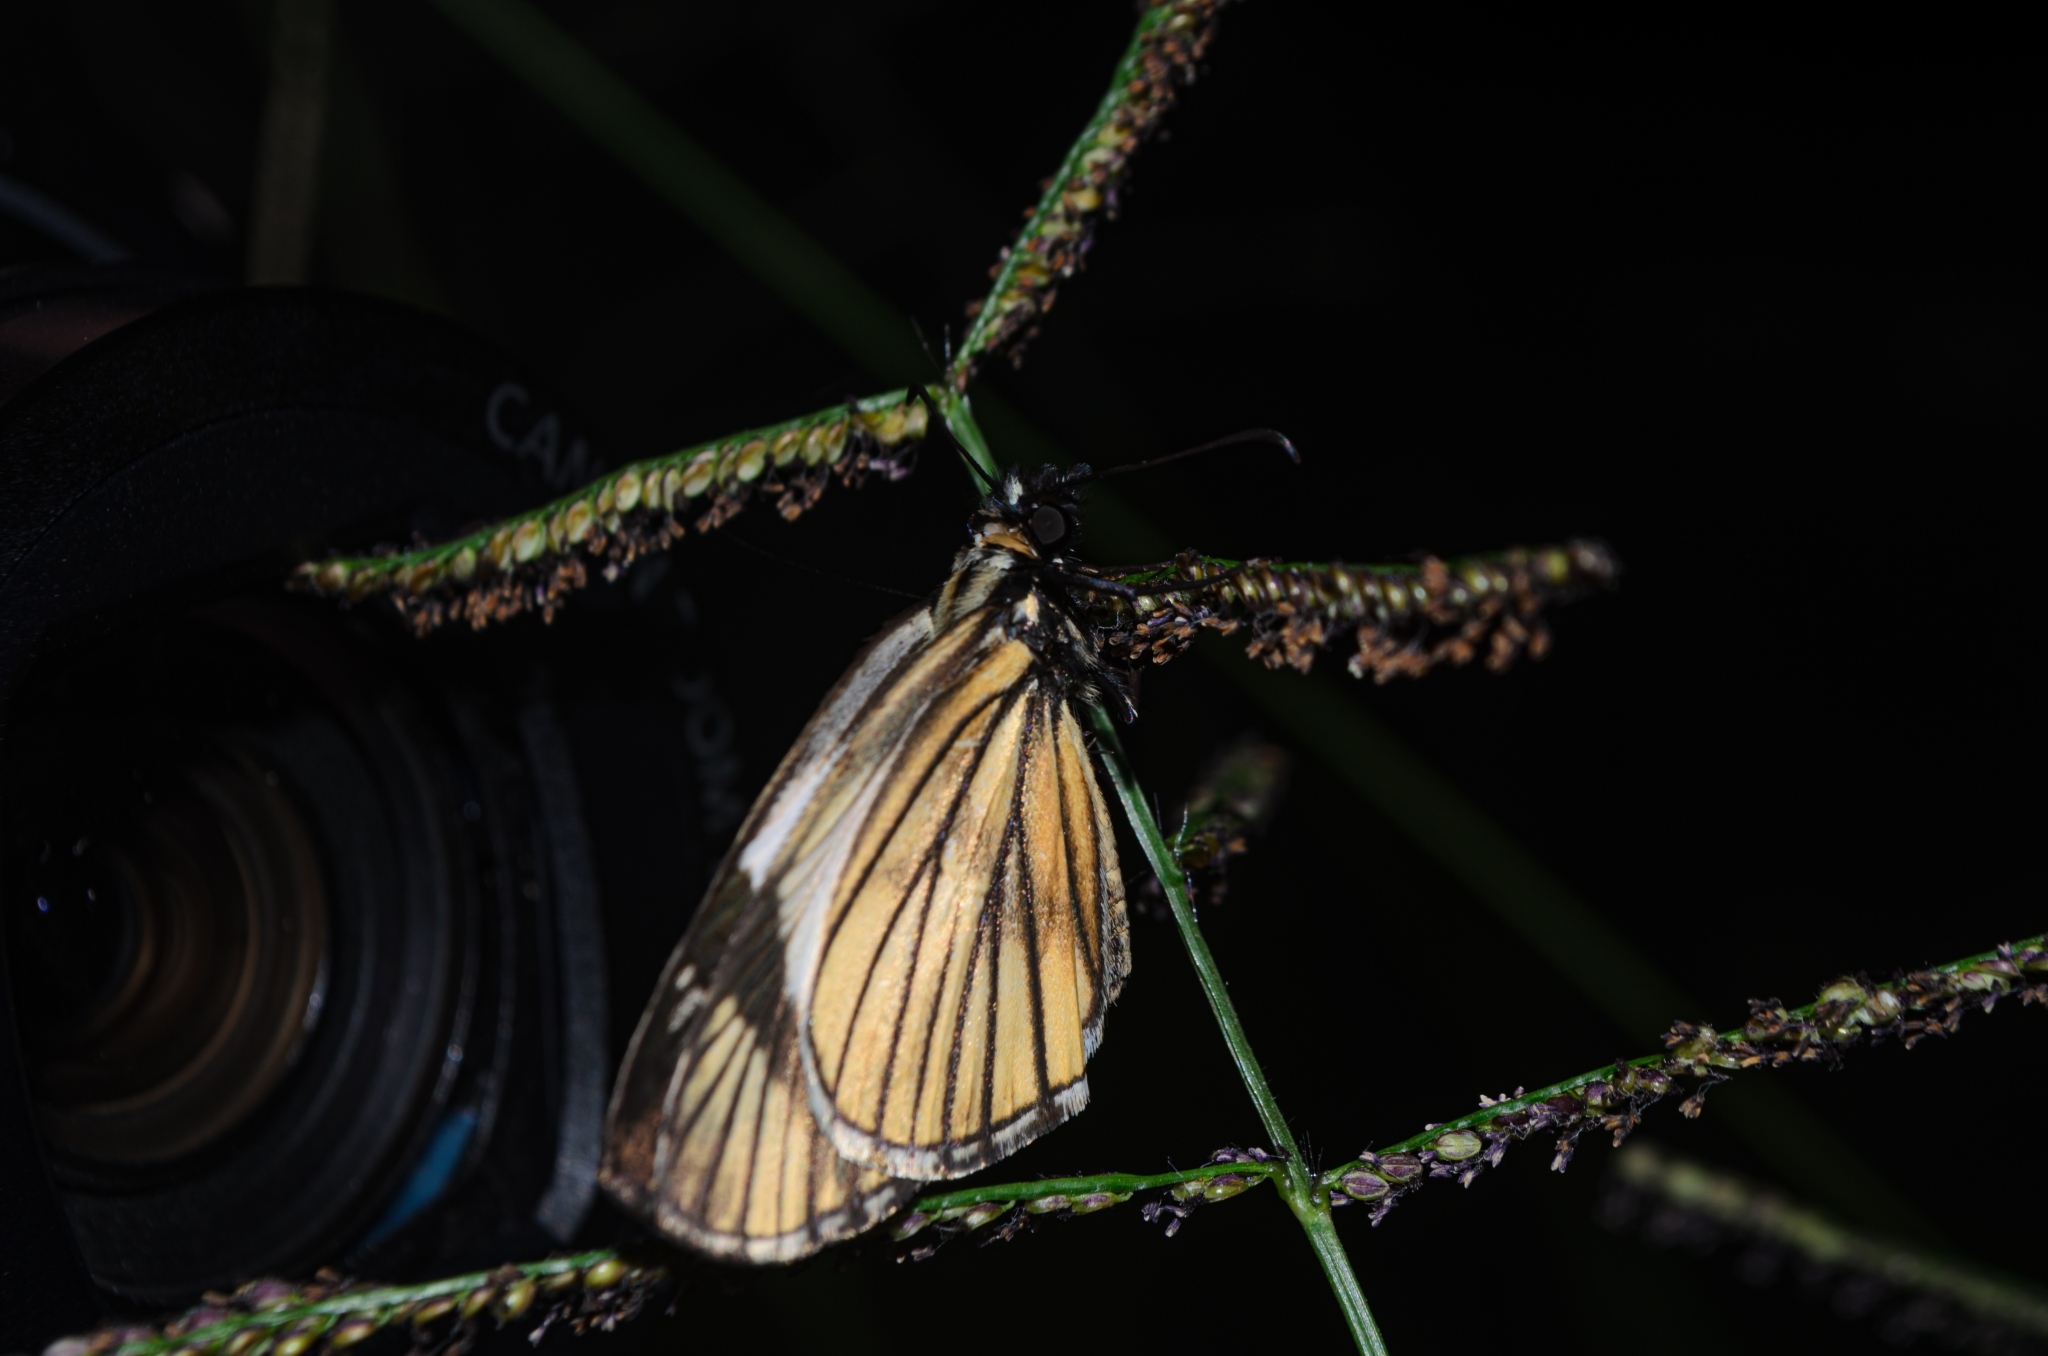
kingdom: Animalia
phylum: Arthropoda
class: Insecta
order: Lepidoptera
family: Hesperiidae
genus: Heliopetes
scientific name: Heliopetes purgia
